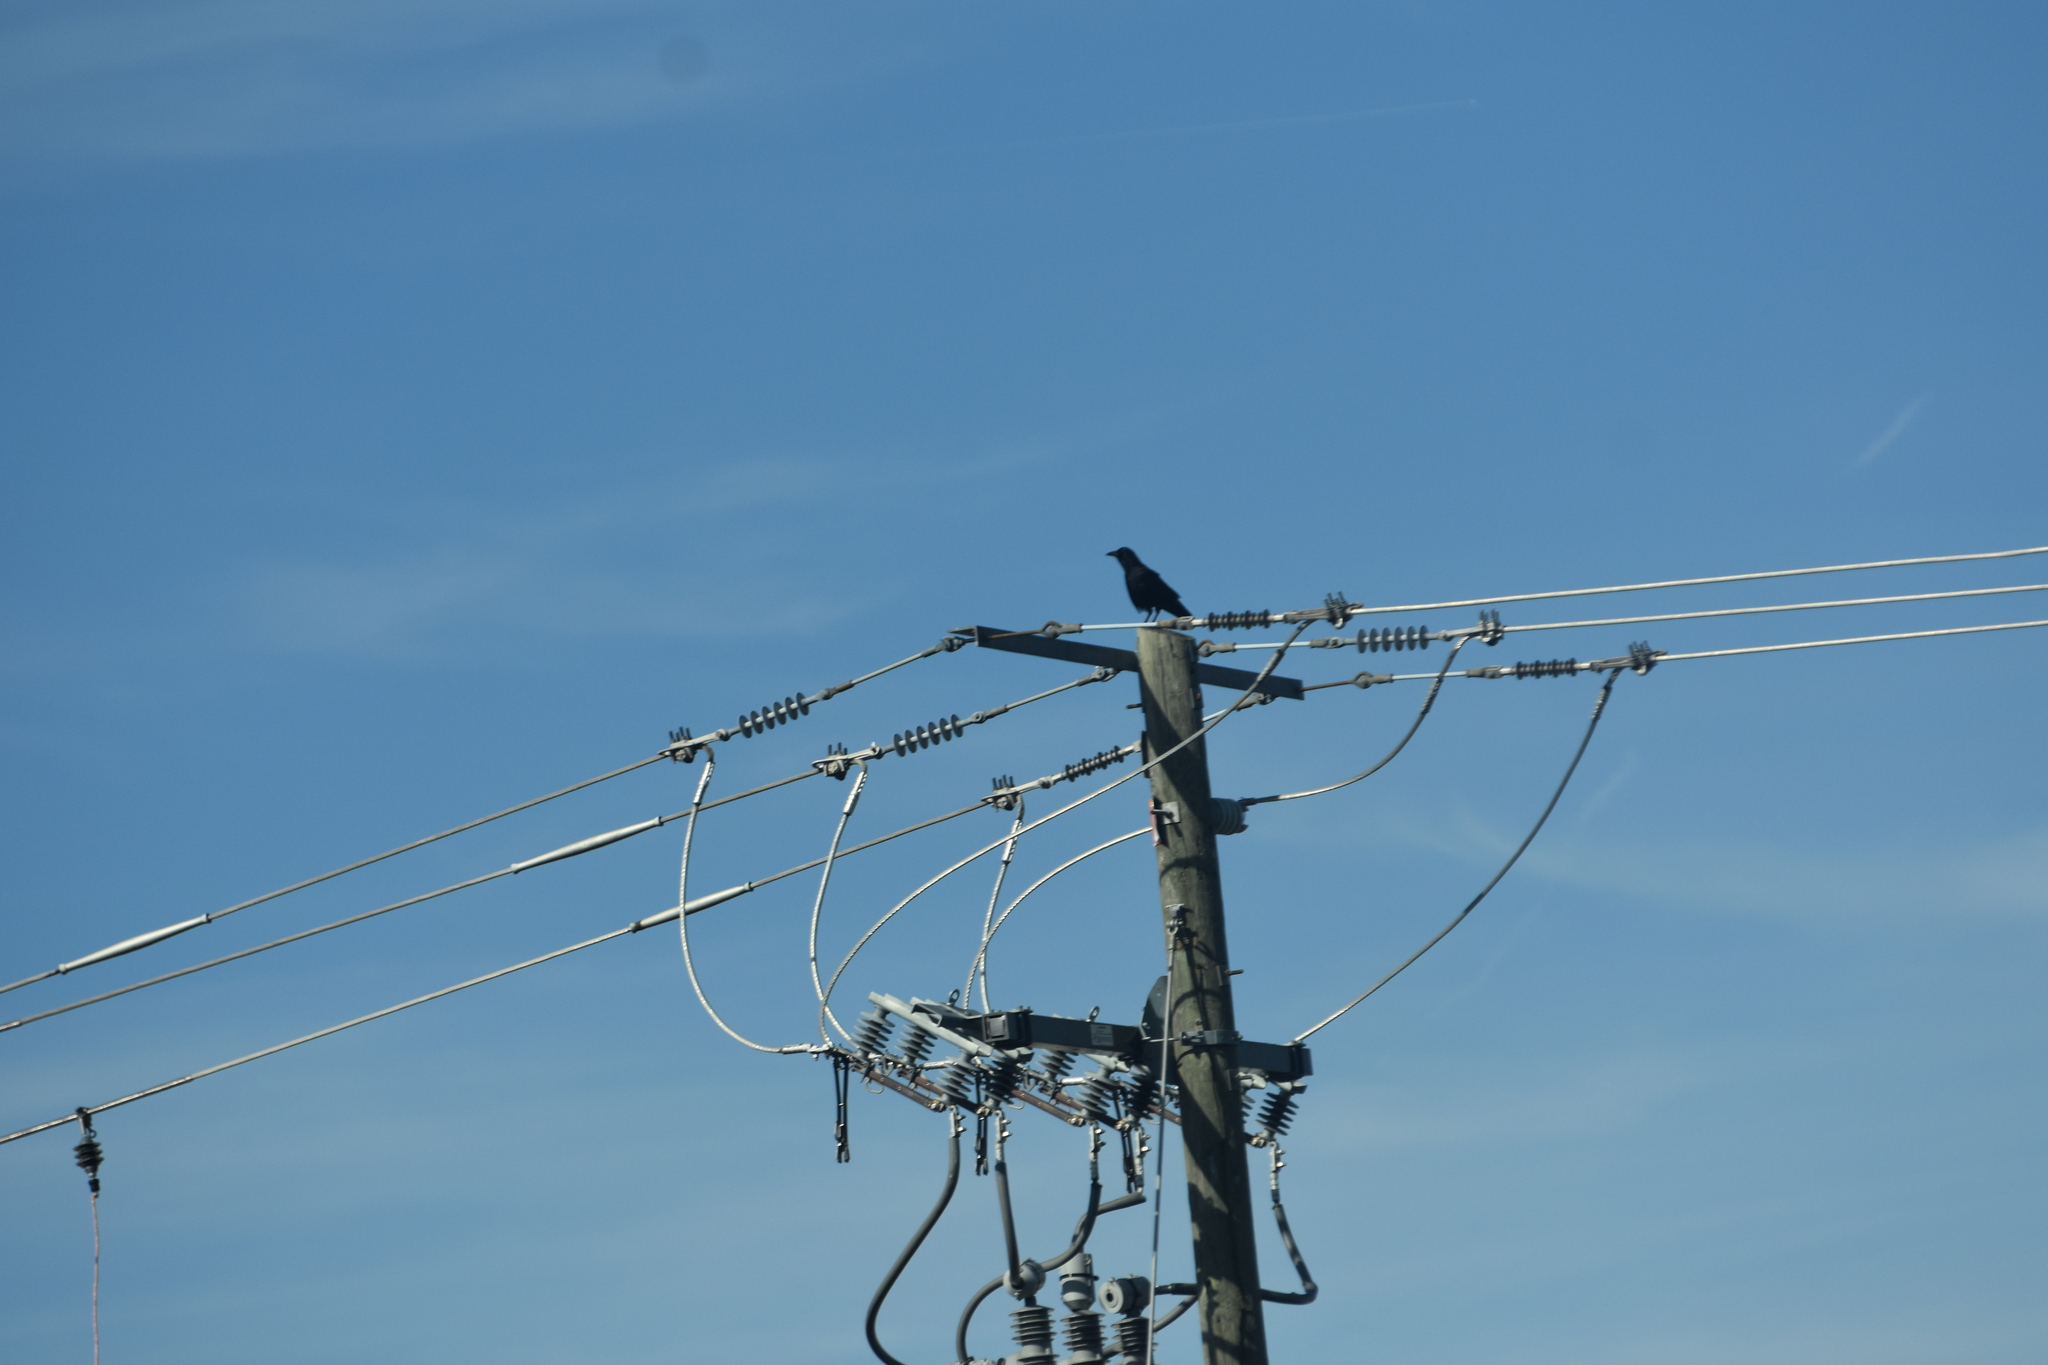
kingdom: Animalia
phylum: Chordata
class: Aves
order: Passeriformes
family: Corvidae
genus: Corvus
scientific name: Corvus
